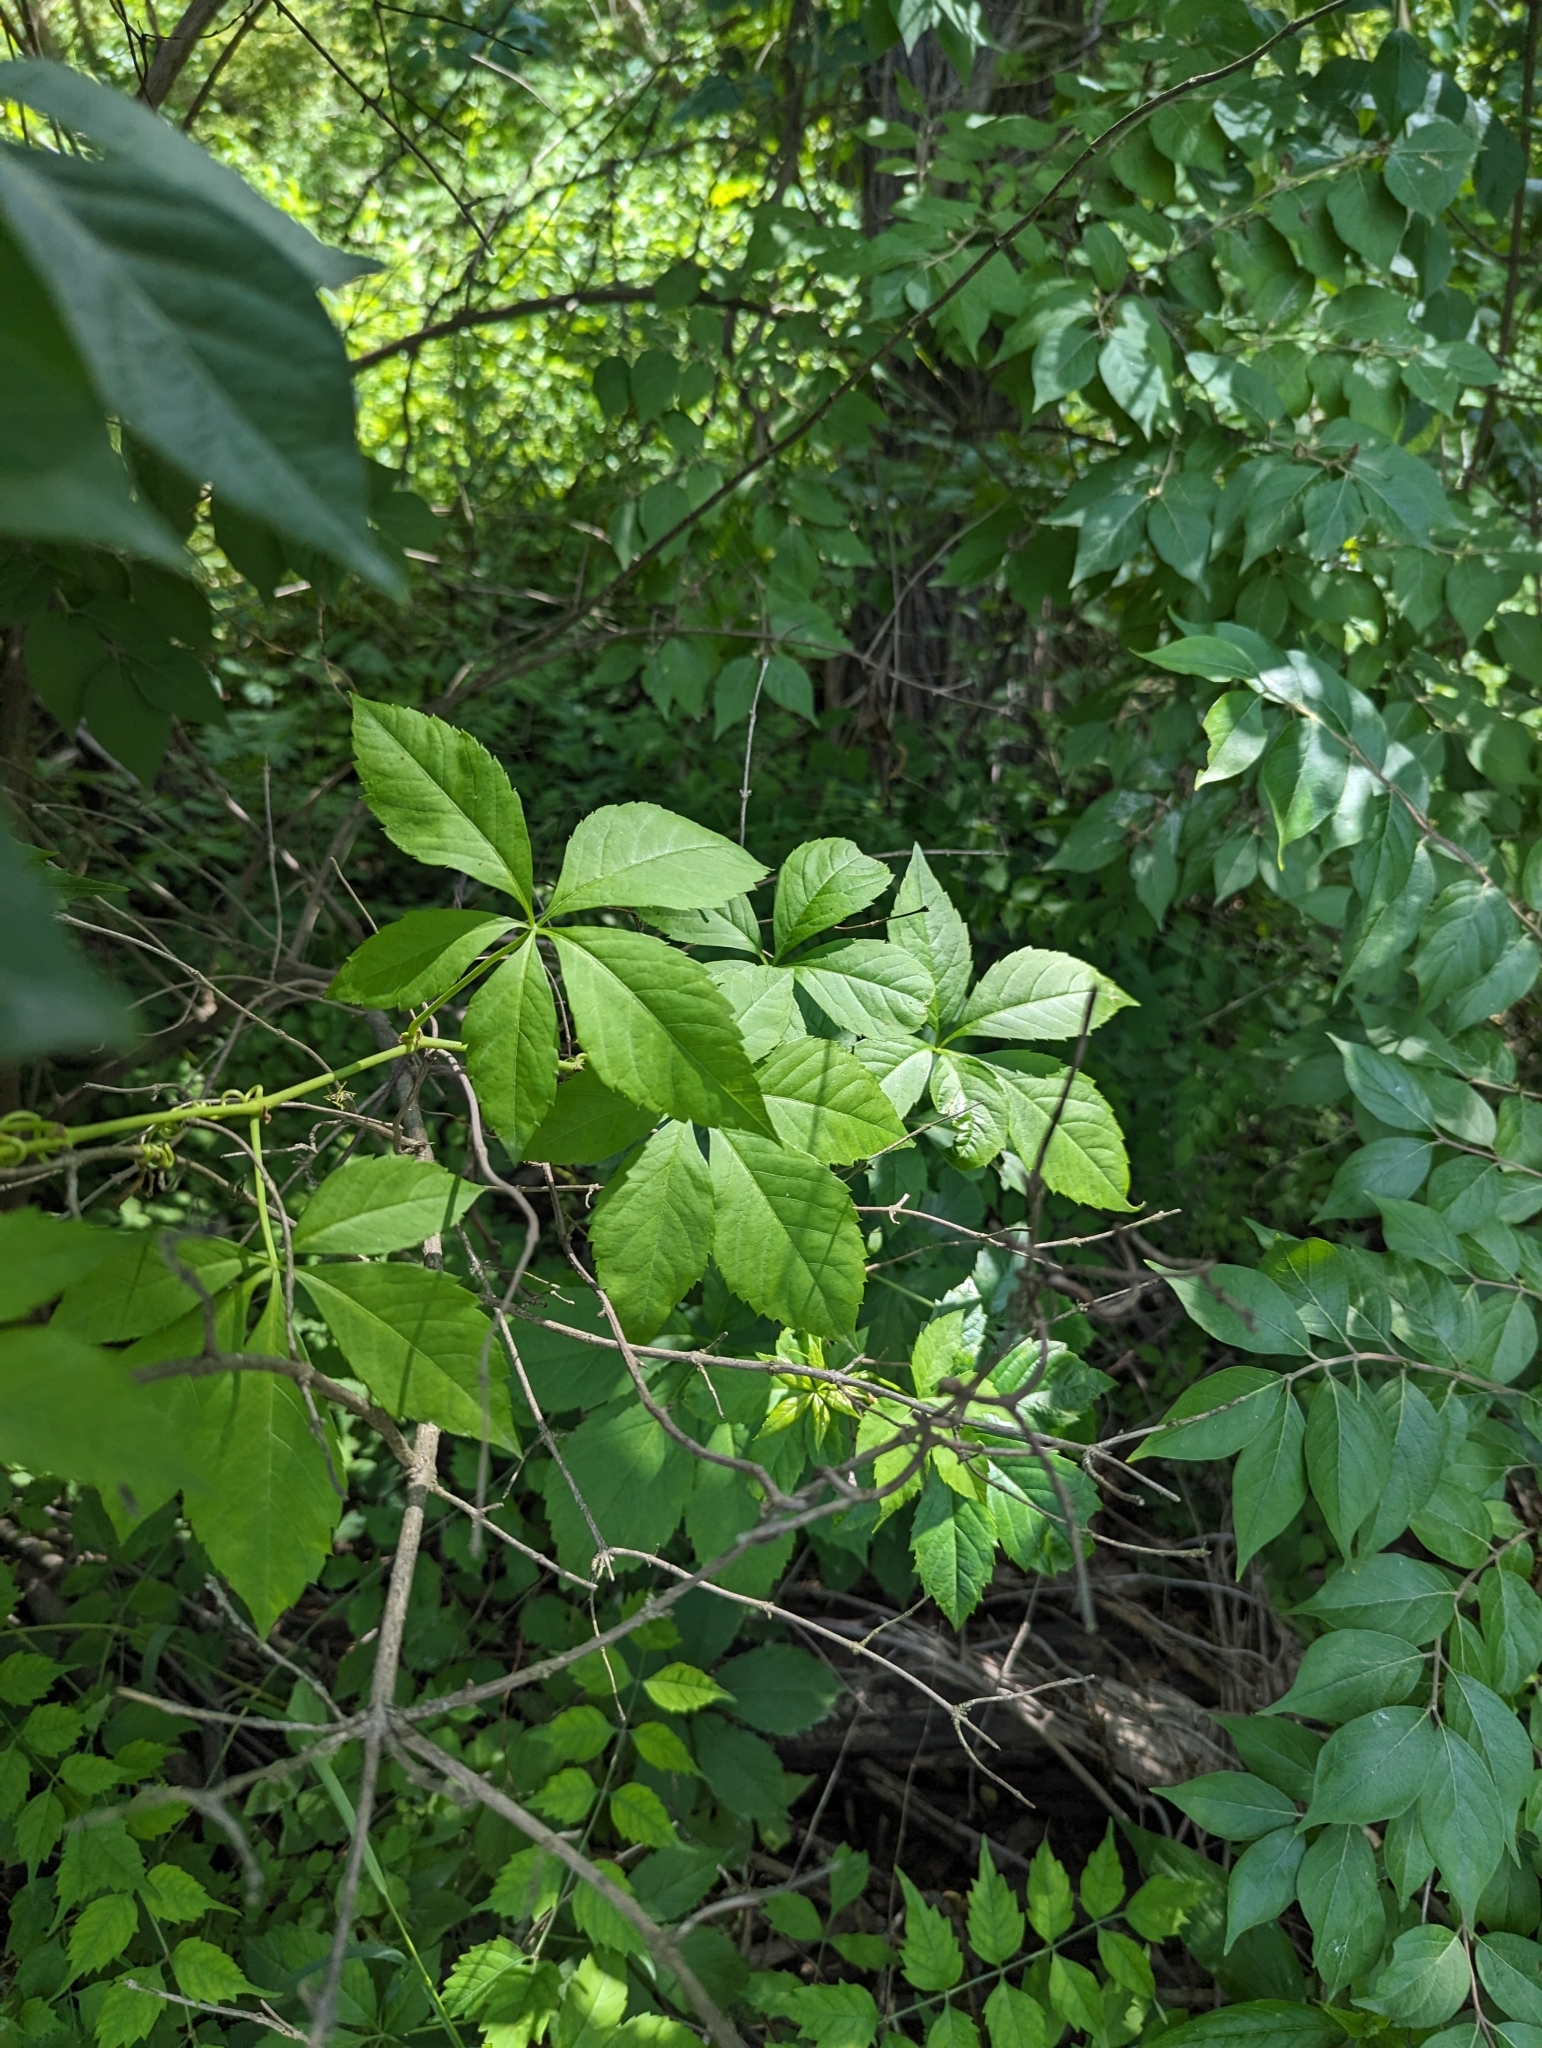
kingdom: Plantae
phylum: Tracheophyta
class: Magnoliopsida
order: Vitales
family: Vitaceae
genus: Parthenocissus
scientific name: Parthenocissus quinquefolia
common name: Virginia-creeper
